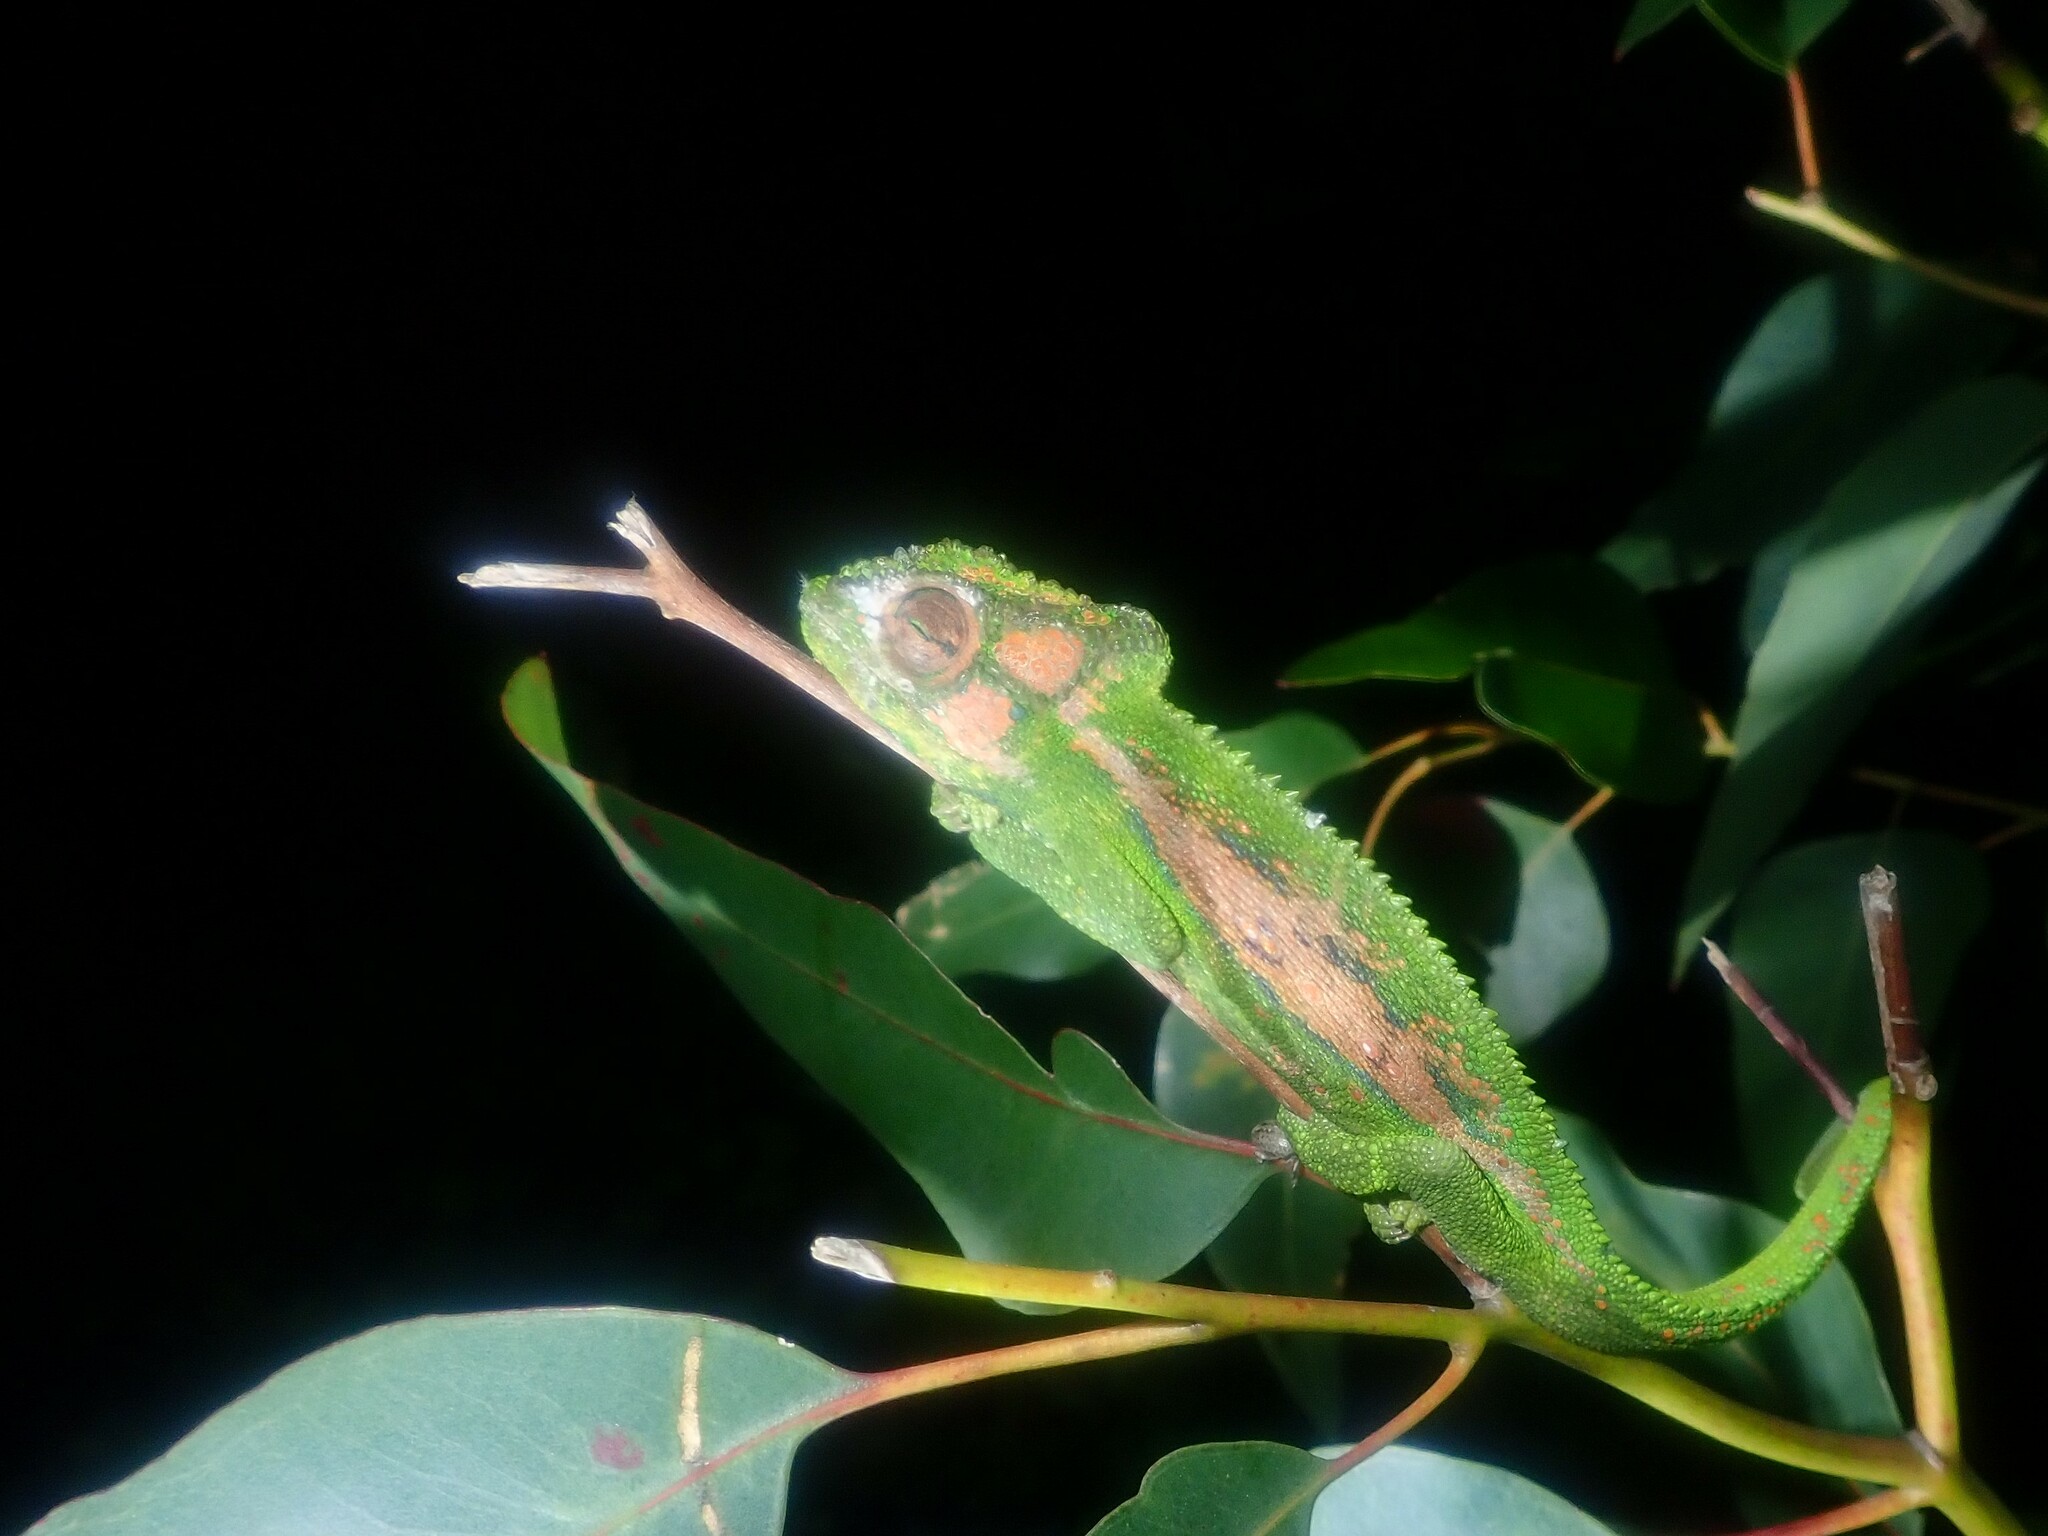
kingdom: Animalia
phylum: Chordata
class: Squamata
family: Chamaeleonidae
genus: Bradypodion
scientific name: Bradypodion pumilum
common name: Cape dwarf chameleon
